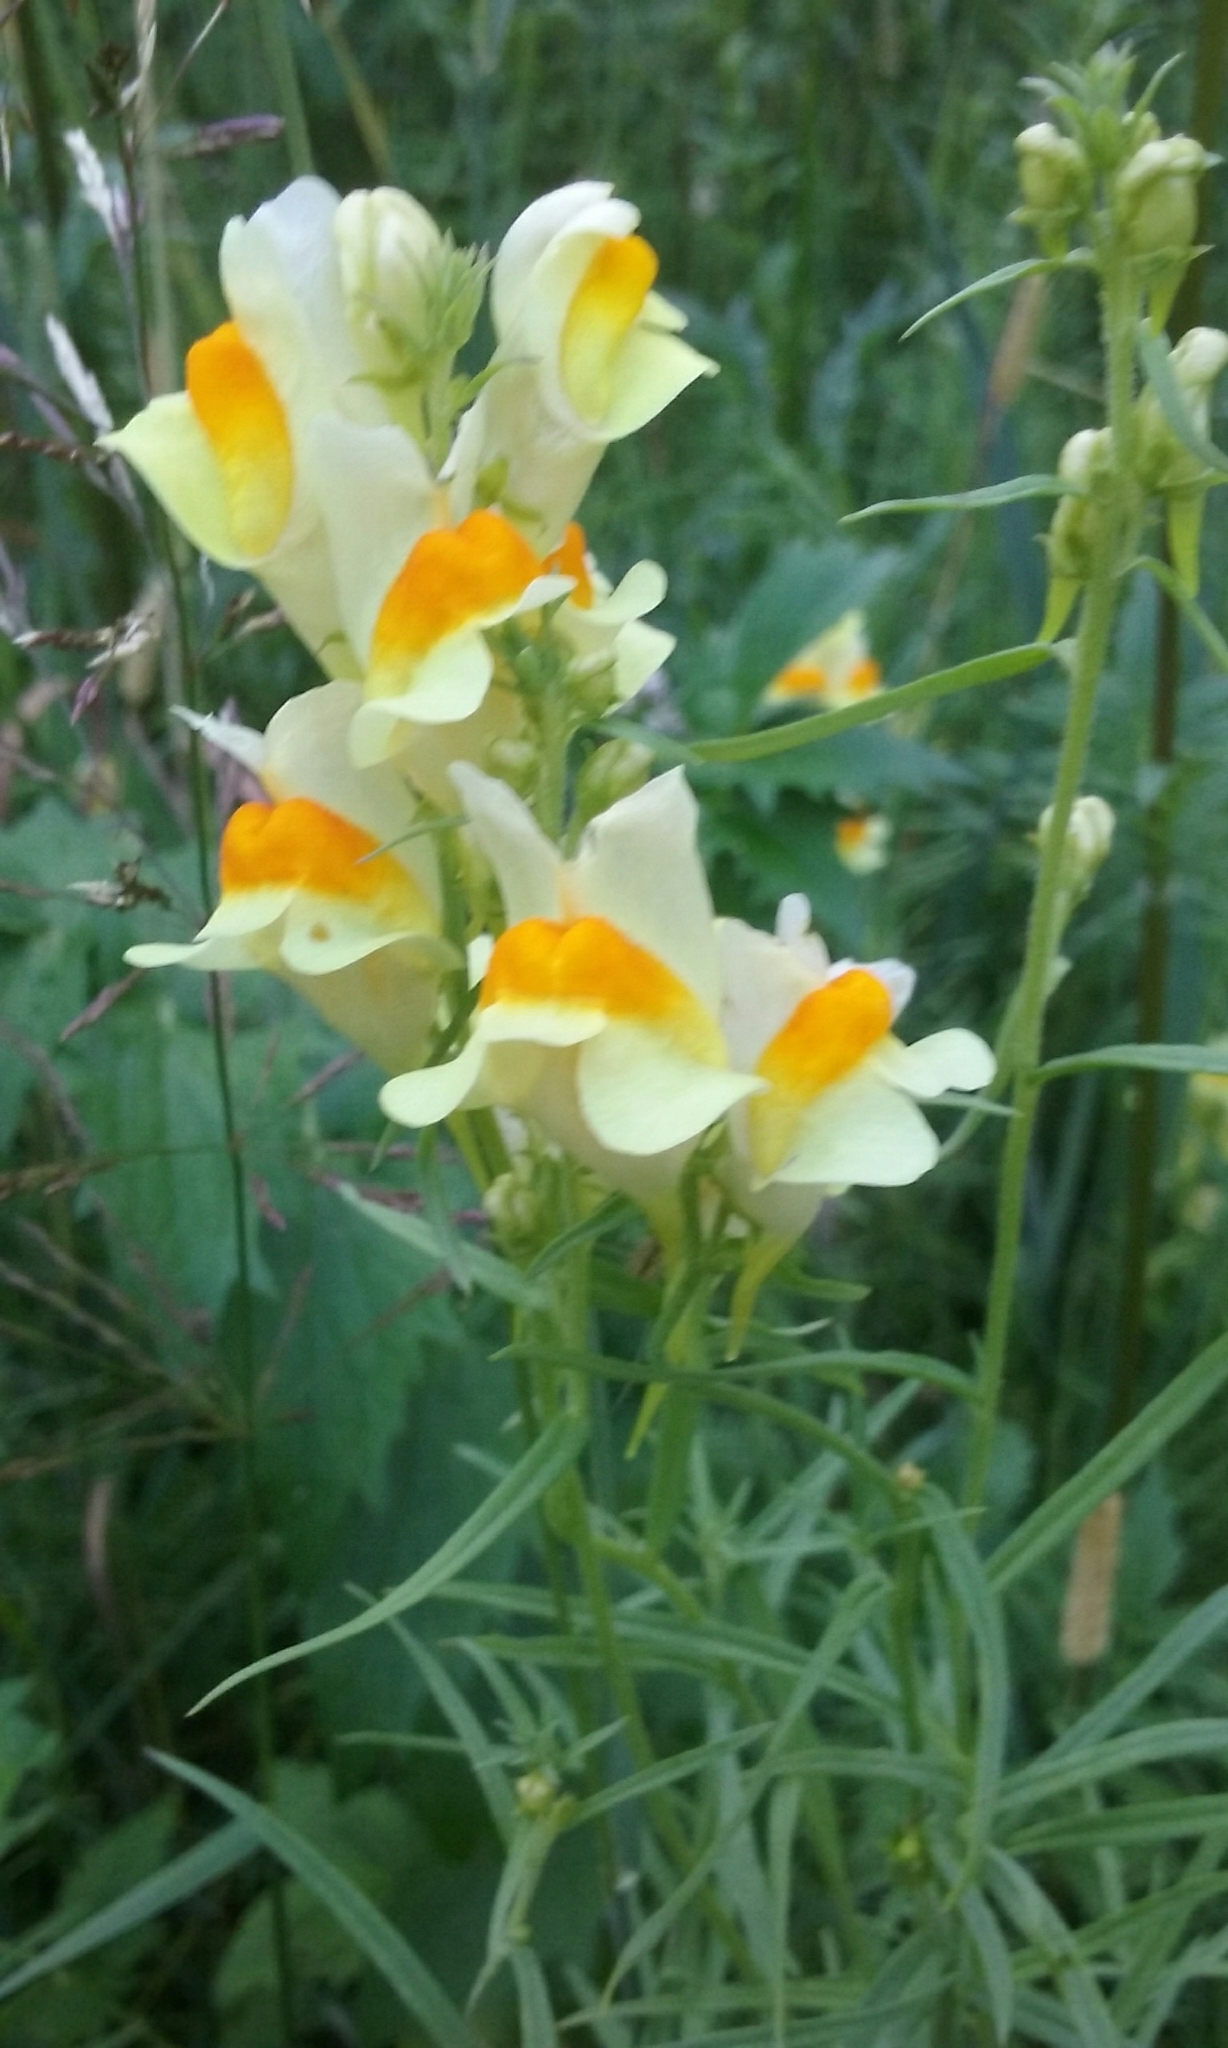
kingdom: Plantae
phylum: Tracheophyta
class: Magnoliopsida
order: Lamiales
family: Plantaginaceae
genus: Linaria
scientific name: Linaria vulgaris
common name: Butter and eggs
